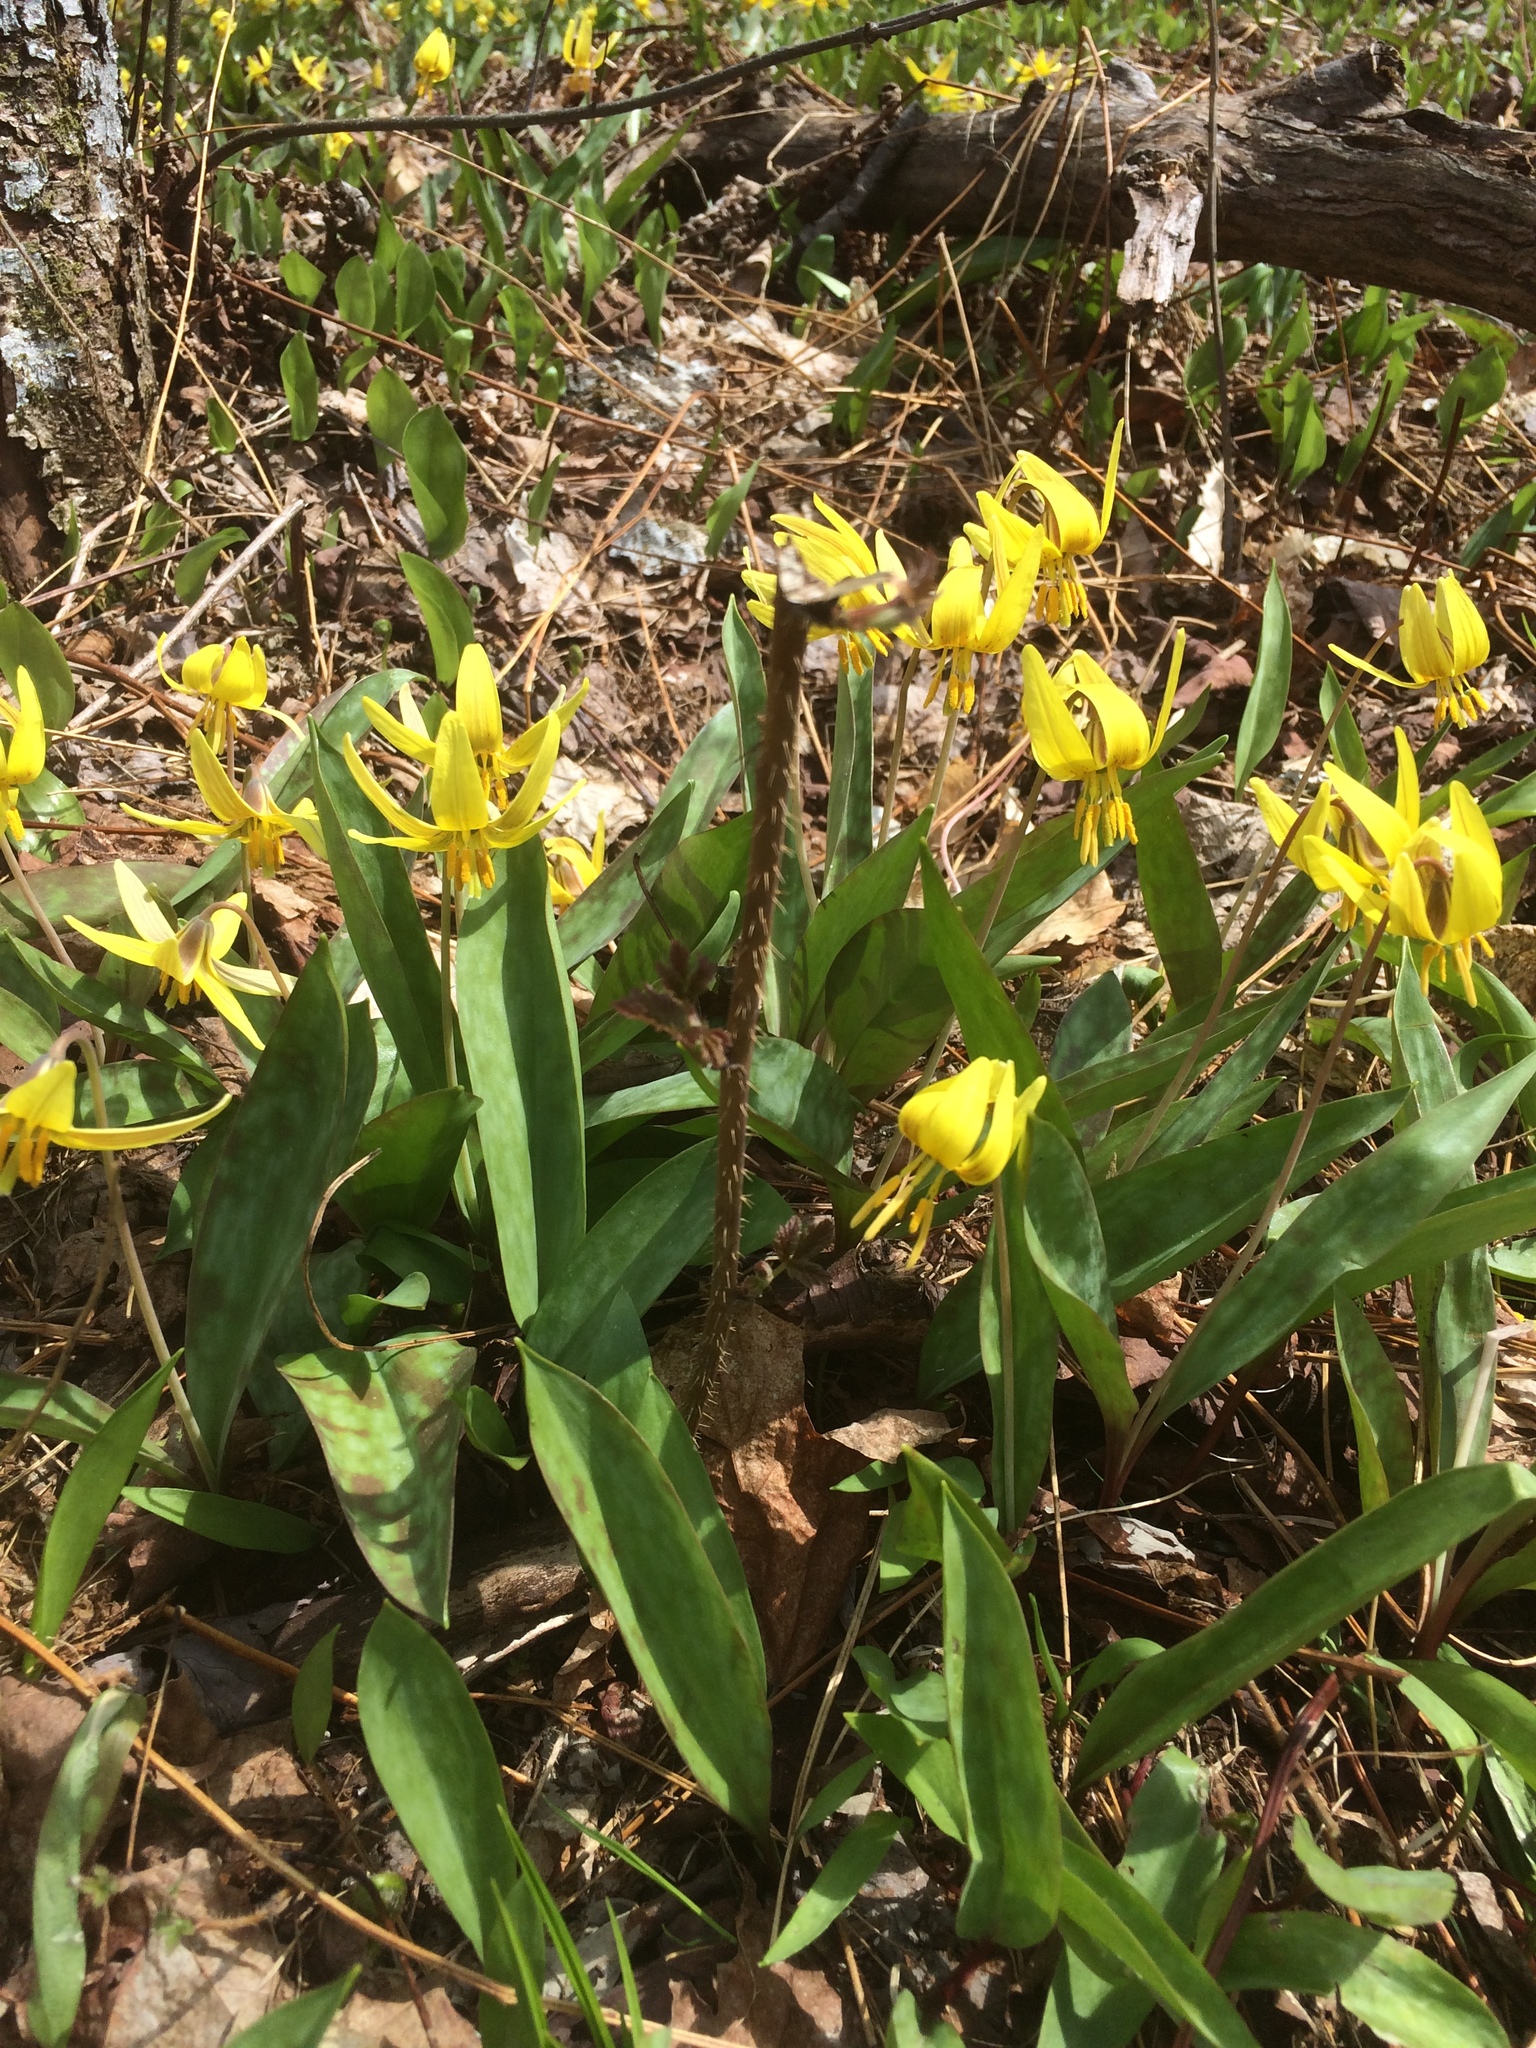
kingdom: Plantae
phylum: Tracheophyta
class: Liliopsida
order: Liliales
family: Liliaceae
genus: Erythronium
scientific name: Erythronium americanum
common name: Yellow adder's-tongue
